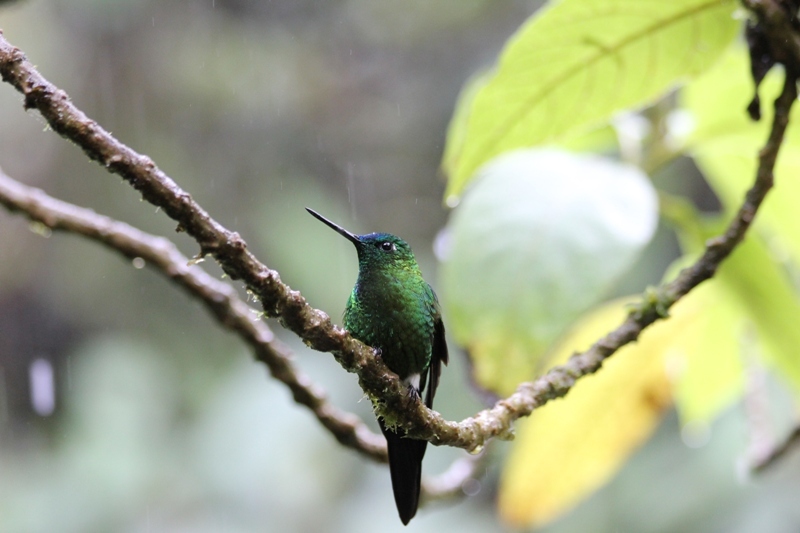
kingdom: Animalia
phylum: Chordata
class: Aves
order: Apodiformes
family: Trochilidae
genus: Eriocnemis
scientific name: Eriocnemis luciani
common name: Sapphire-vented puffleg
